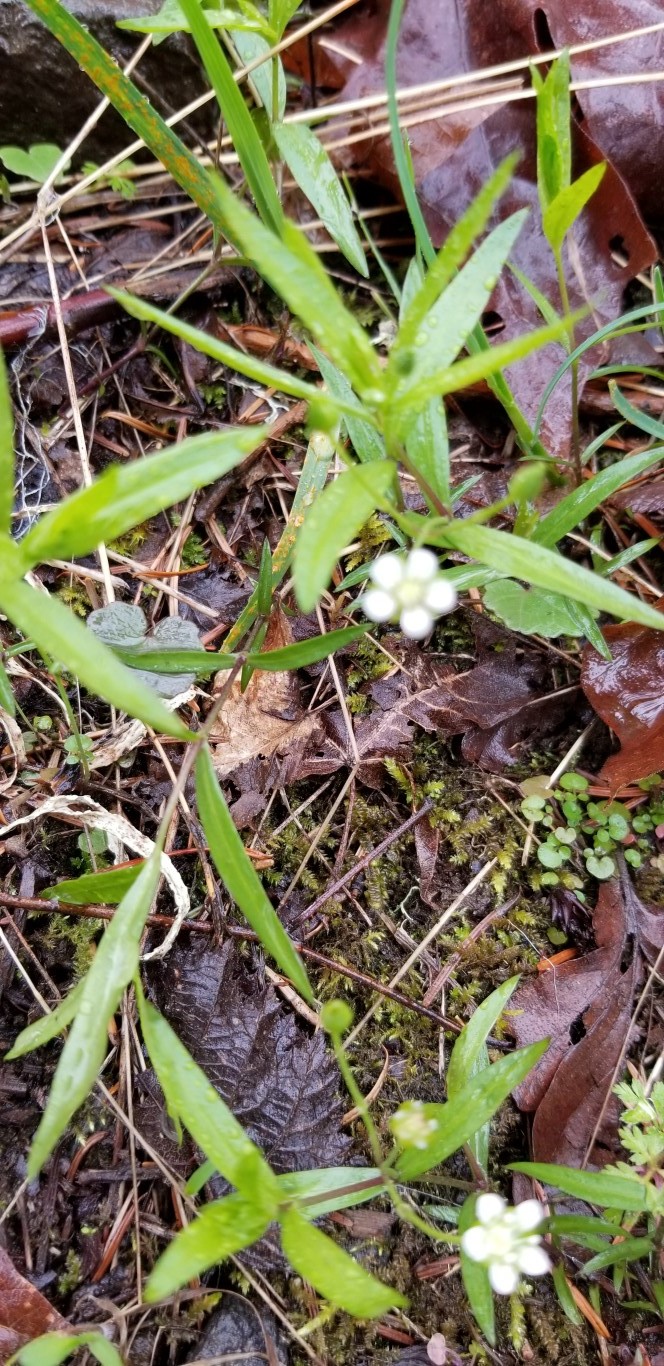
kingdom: Plantae
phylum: Tracheophyta
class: Magnoliopsida
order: Caryophyllales
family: Caryophyllaceae
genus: Moehringia
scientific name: Moehringia macrophylla
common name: Big-leaf sandwort
